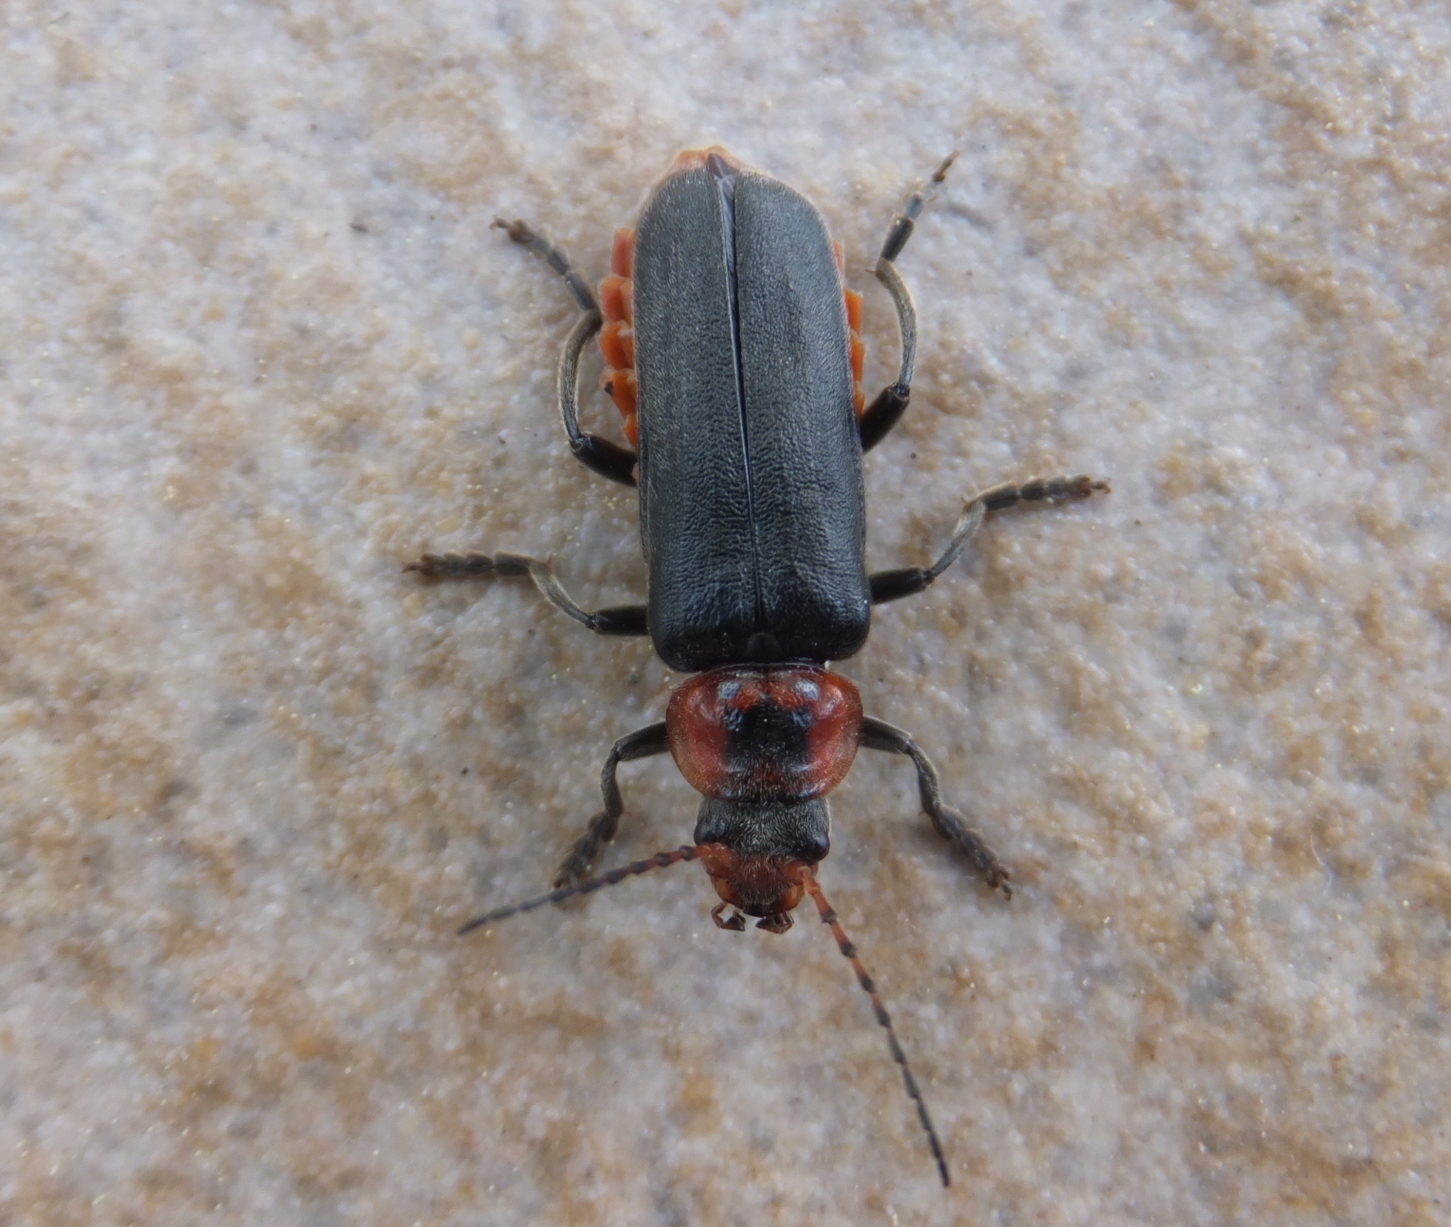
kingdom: Animalia
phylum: Arthropoda
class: Insecta
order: Coleoptera
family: Cantharidae
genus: Cantharis
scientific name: Cantharis fusca
